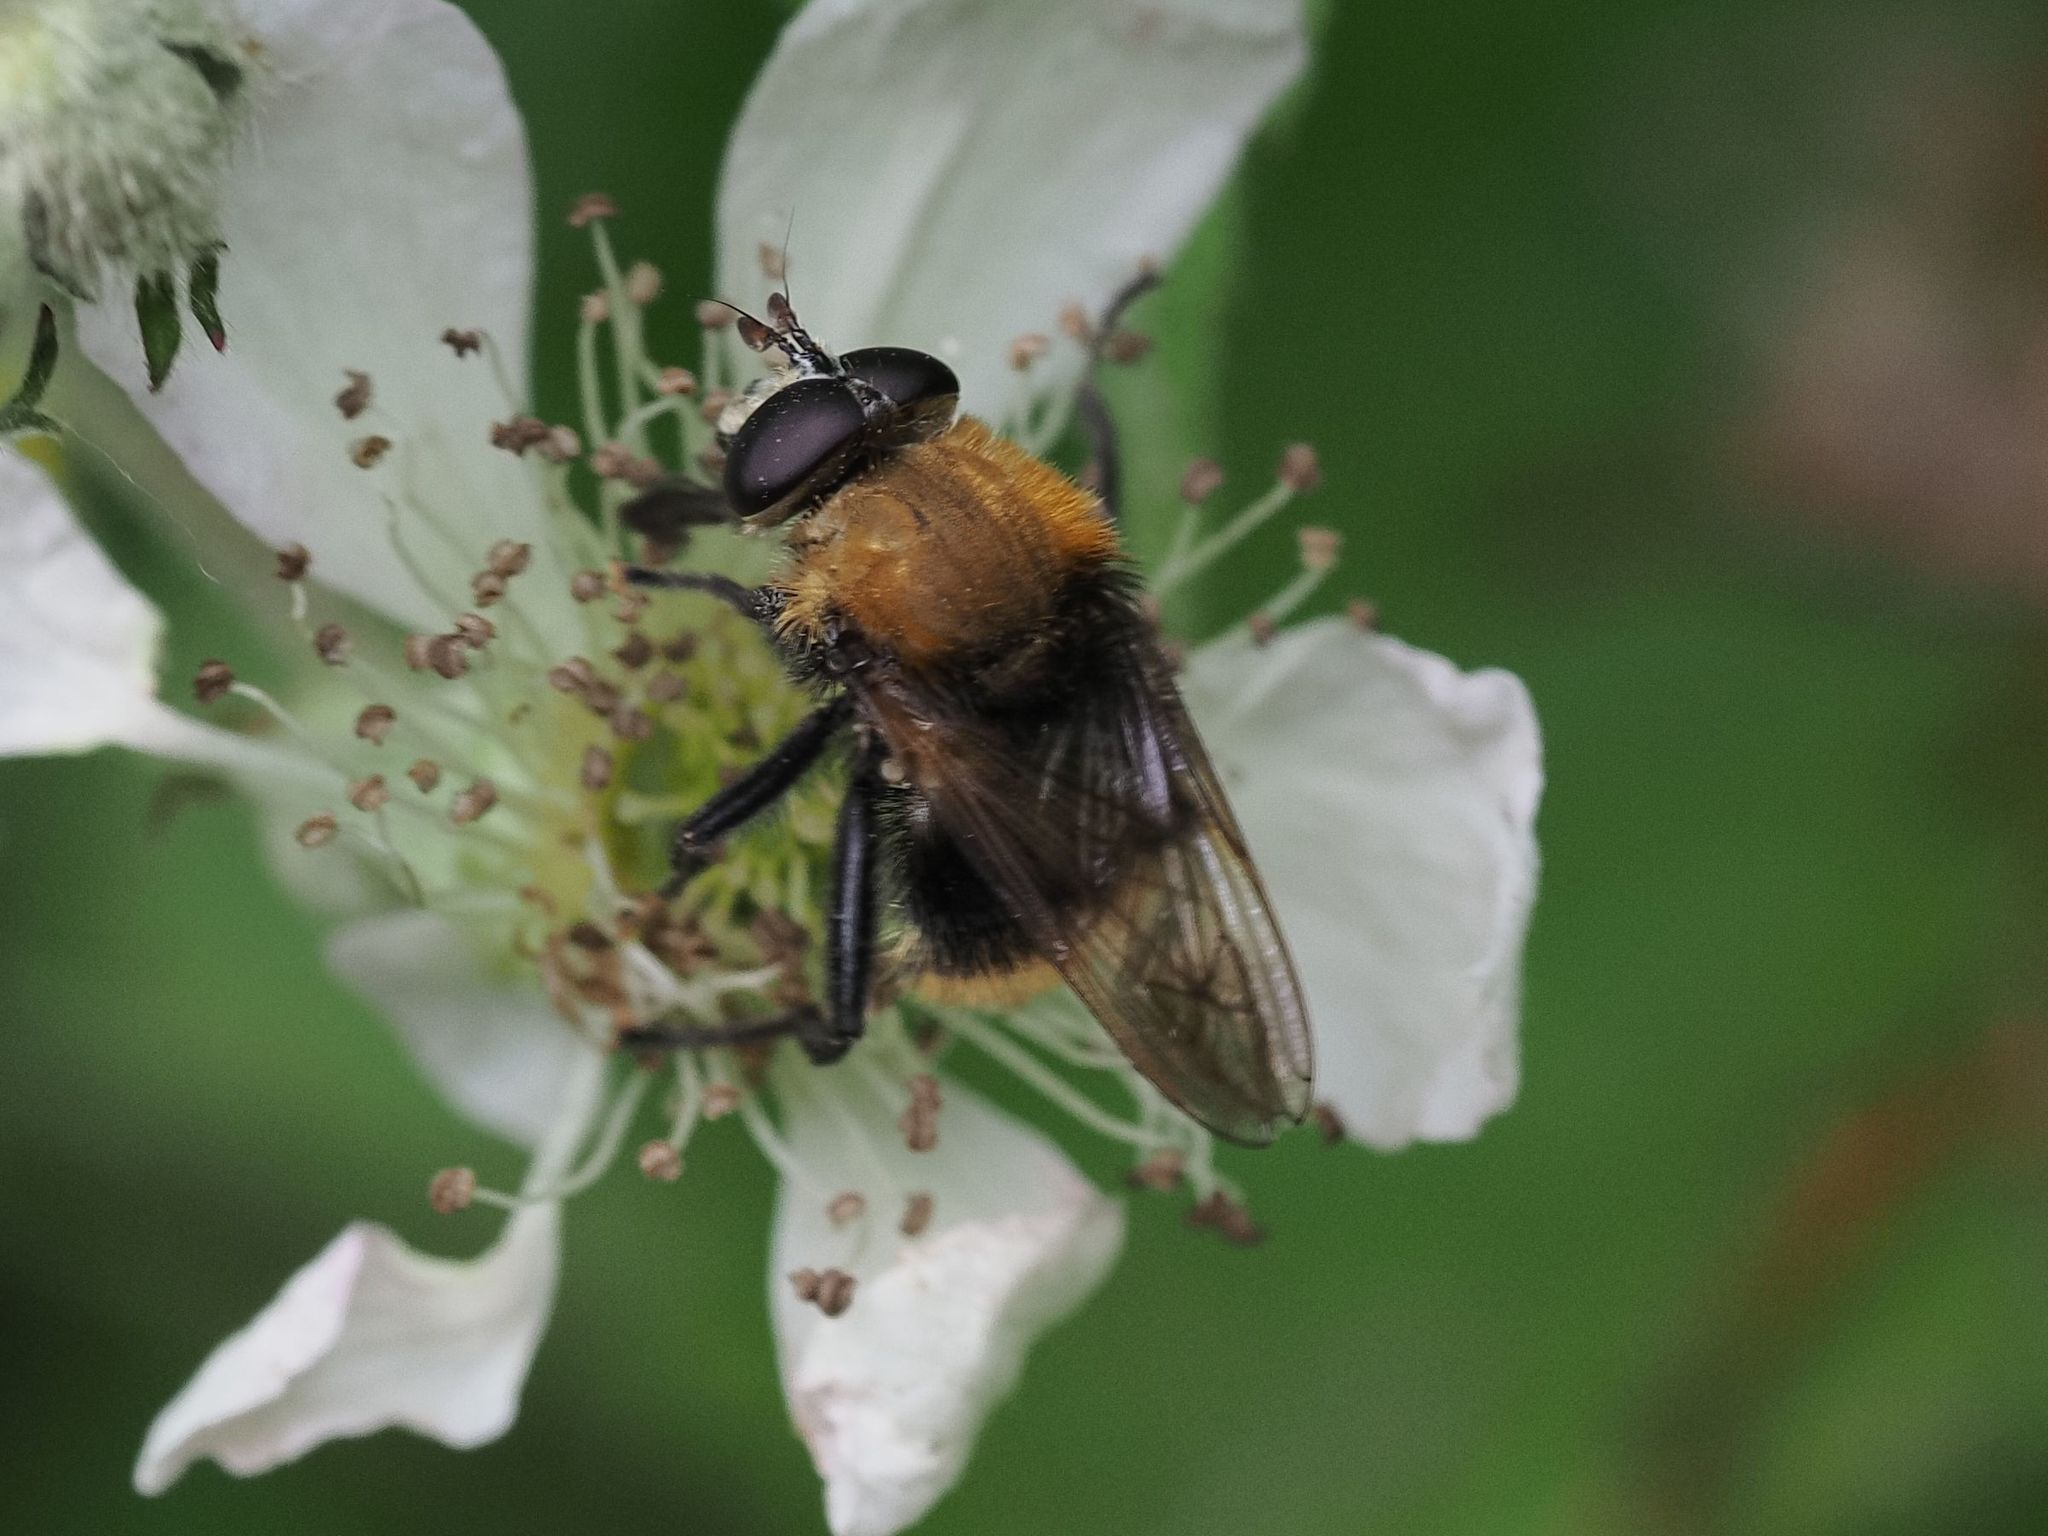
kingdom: Animalia
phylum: Arthropoda
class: Insecta
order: Diptera
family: Syrphidae
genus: Criorhina
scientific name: Criorhina berberina
